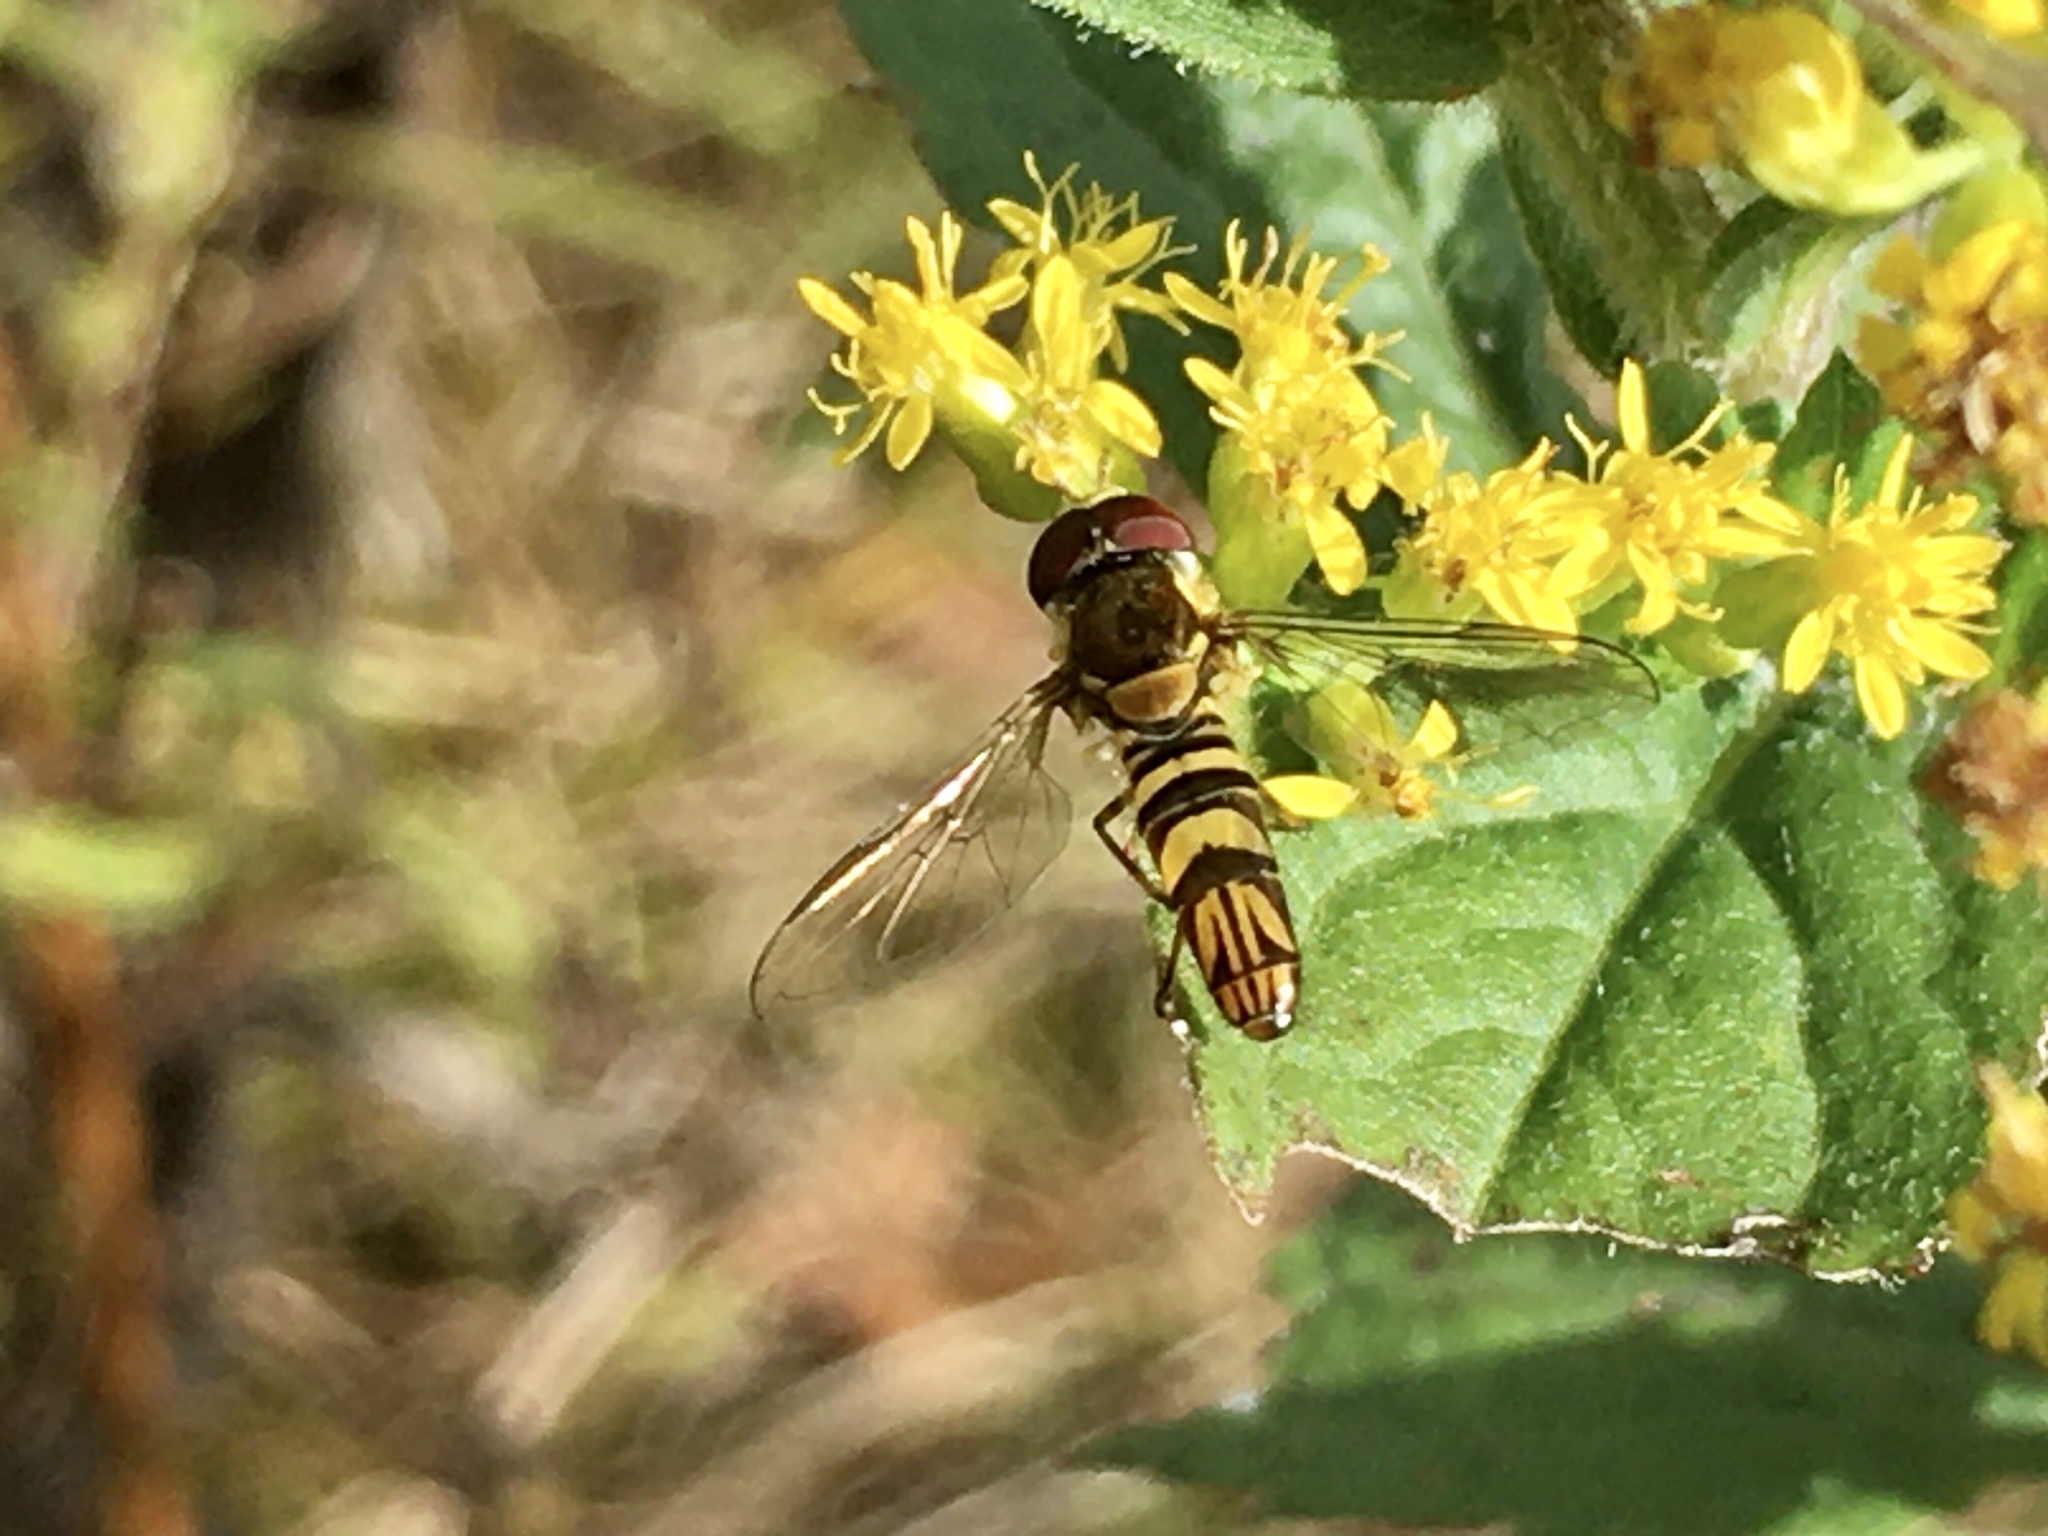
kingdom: Animalia
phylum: Arthropoda
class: Insecta
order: Diptera
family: Syrphidae
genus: Allograpta
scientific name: Allograpta obliqua
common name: Common oblique syrphid
